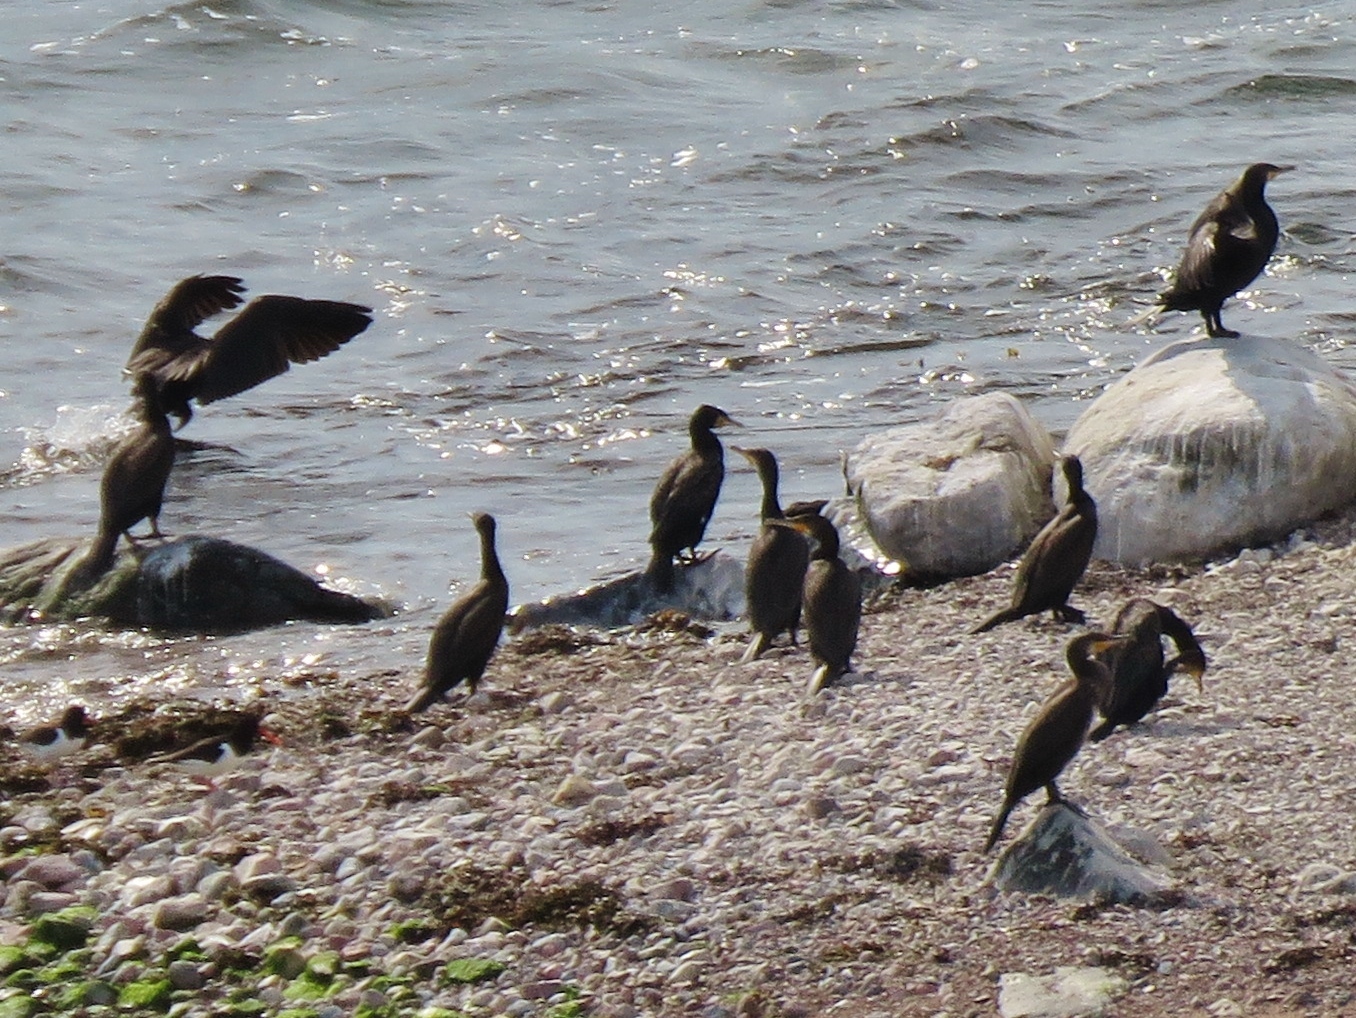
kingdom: Animalia
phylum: Chordata
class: Aves
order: Suliformes
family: Phalacrocoracidae
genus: Phalacrocorax
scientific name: Phalacrocorax carbo
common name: Great cormorant
